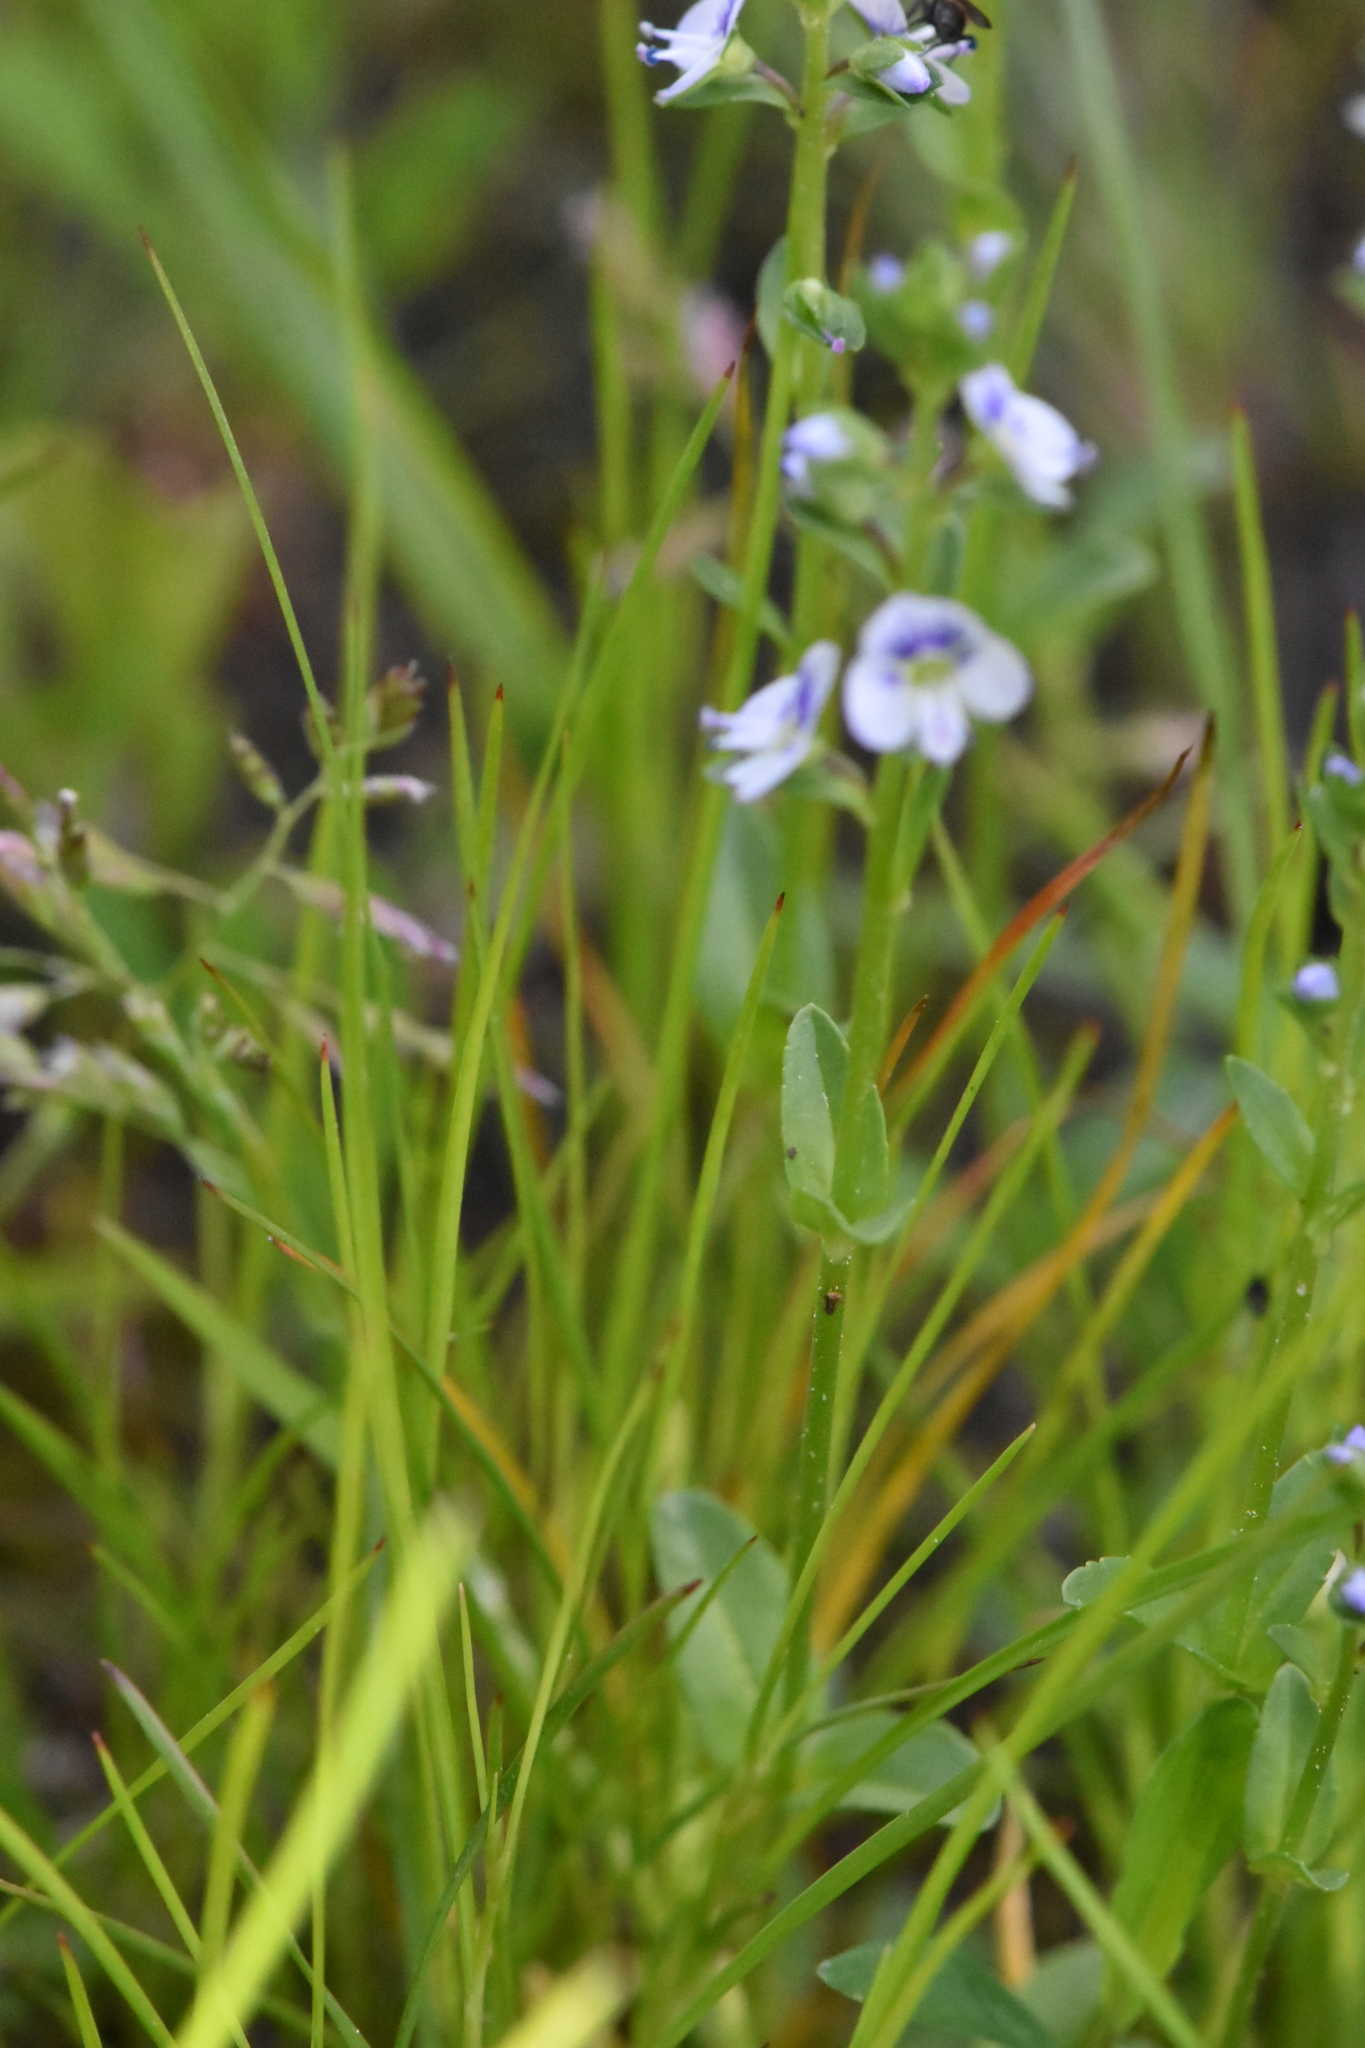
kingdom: Plantae
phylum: Tracheophyta
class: Magnoliopsida
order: Lamiales
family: Plantaginaceae
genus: Veronica
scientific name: Veronica serpyllifolia
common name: Thyme-leaved speedwell
